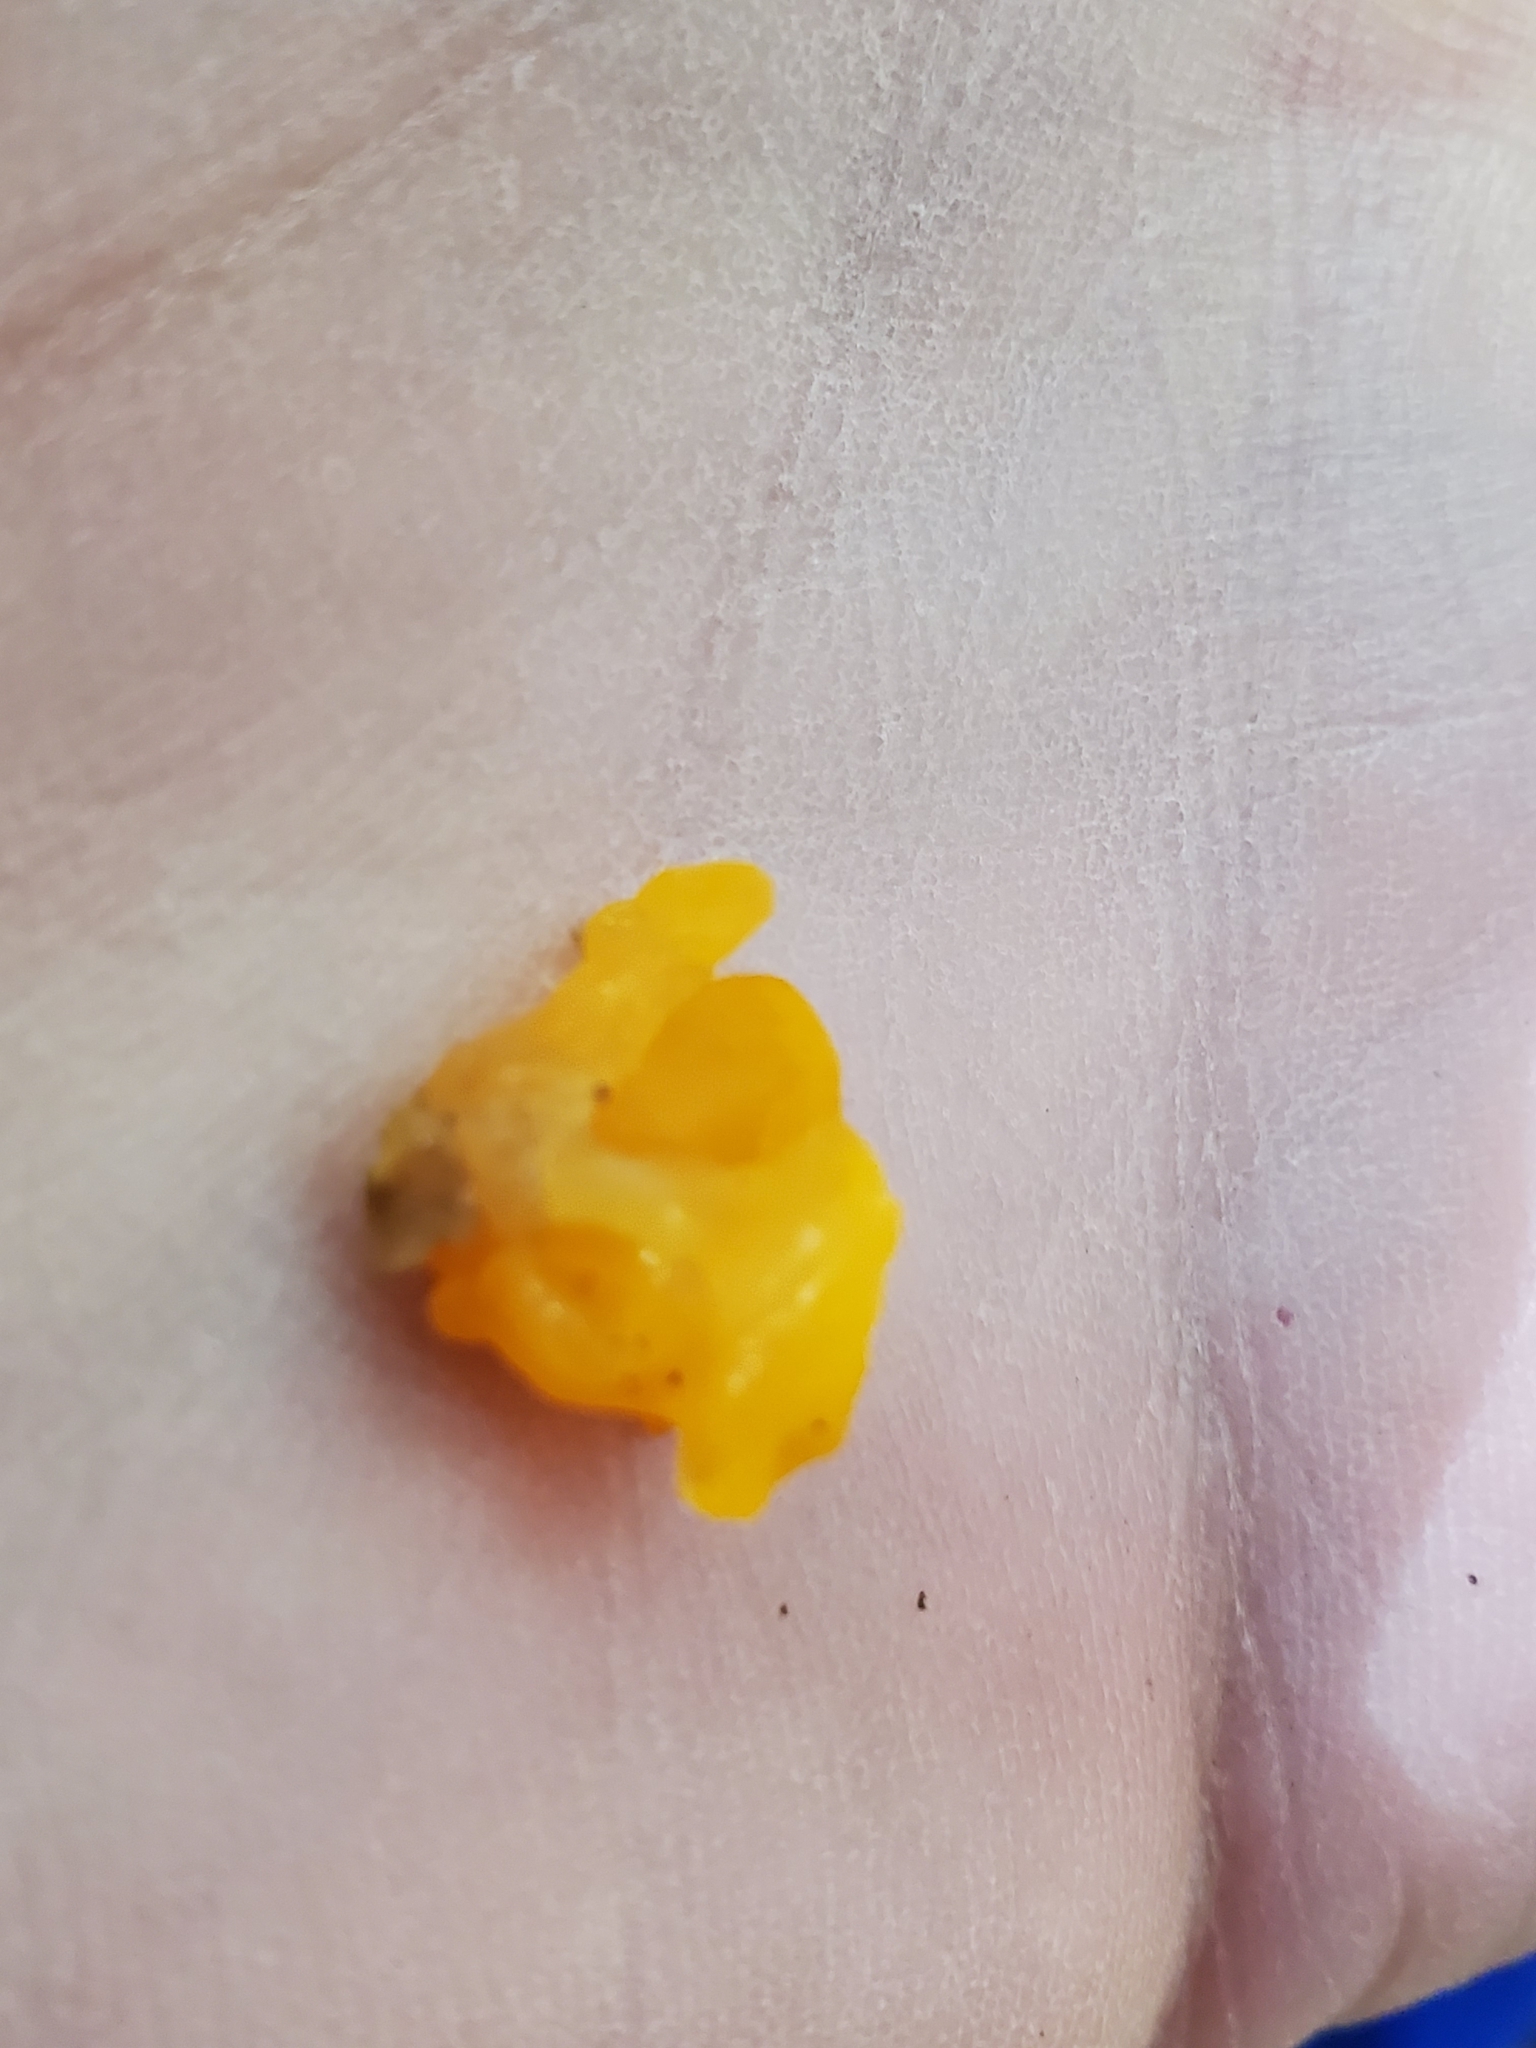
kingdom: Fungi
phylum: Basidiomycota
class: Dacrymycetes
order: Dacrymycetales
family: Dacrymycetaceae
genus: Dacrymyces
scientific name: Dacrymyces chrysospermus
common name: Orange jelly spot
